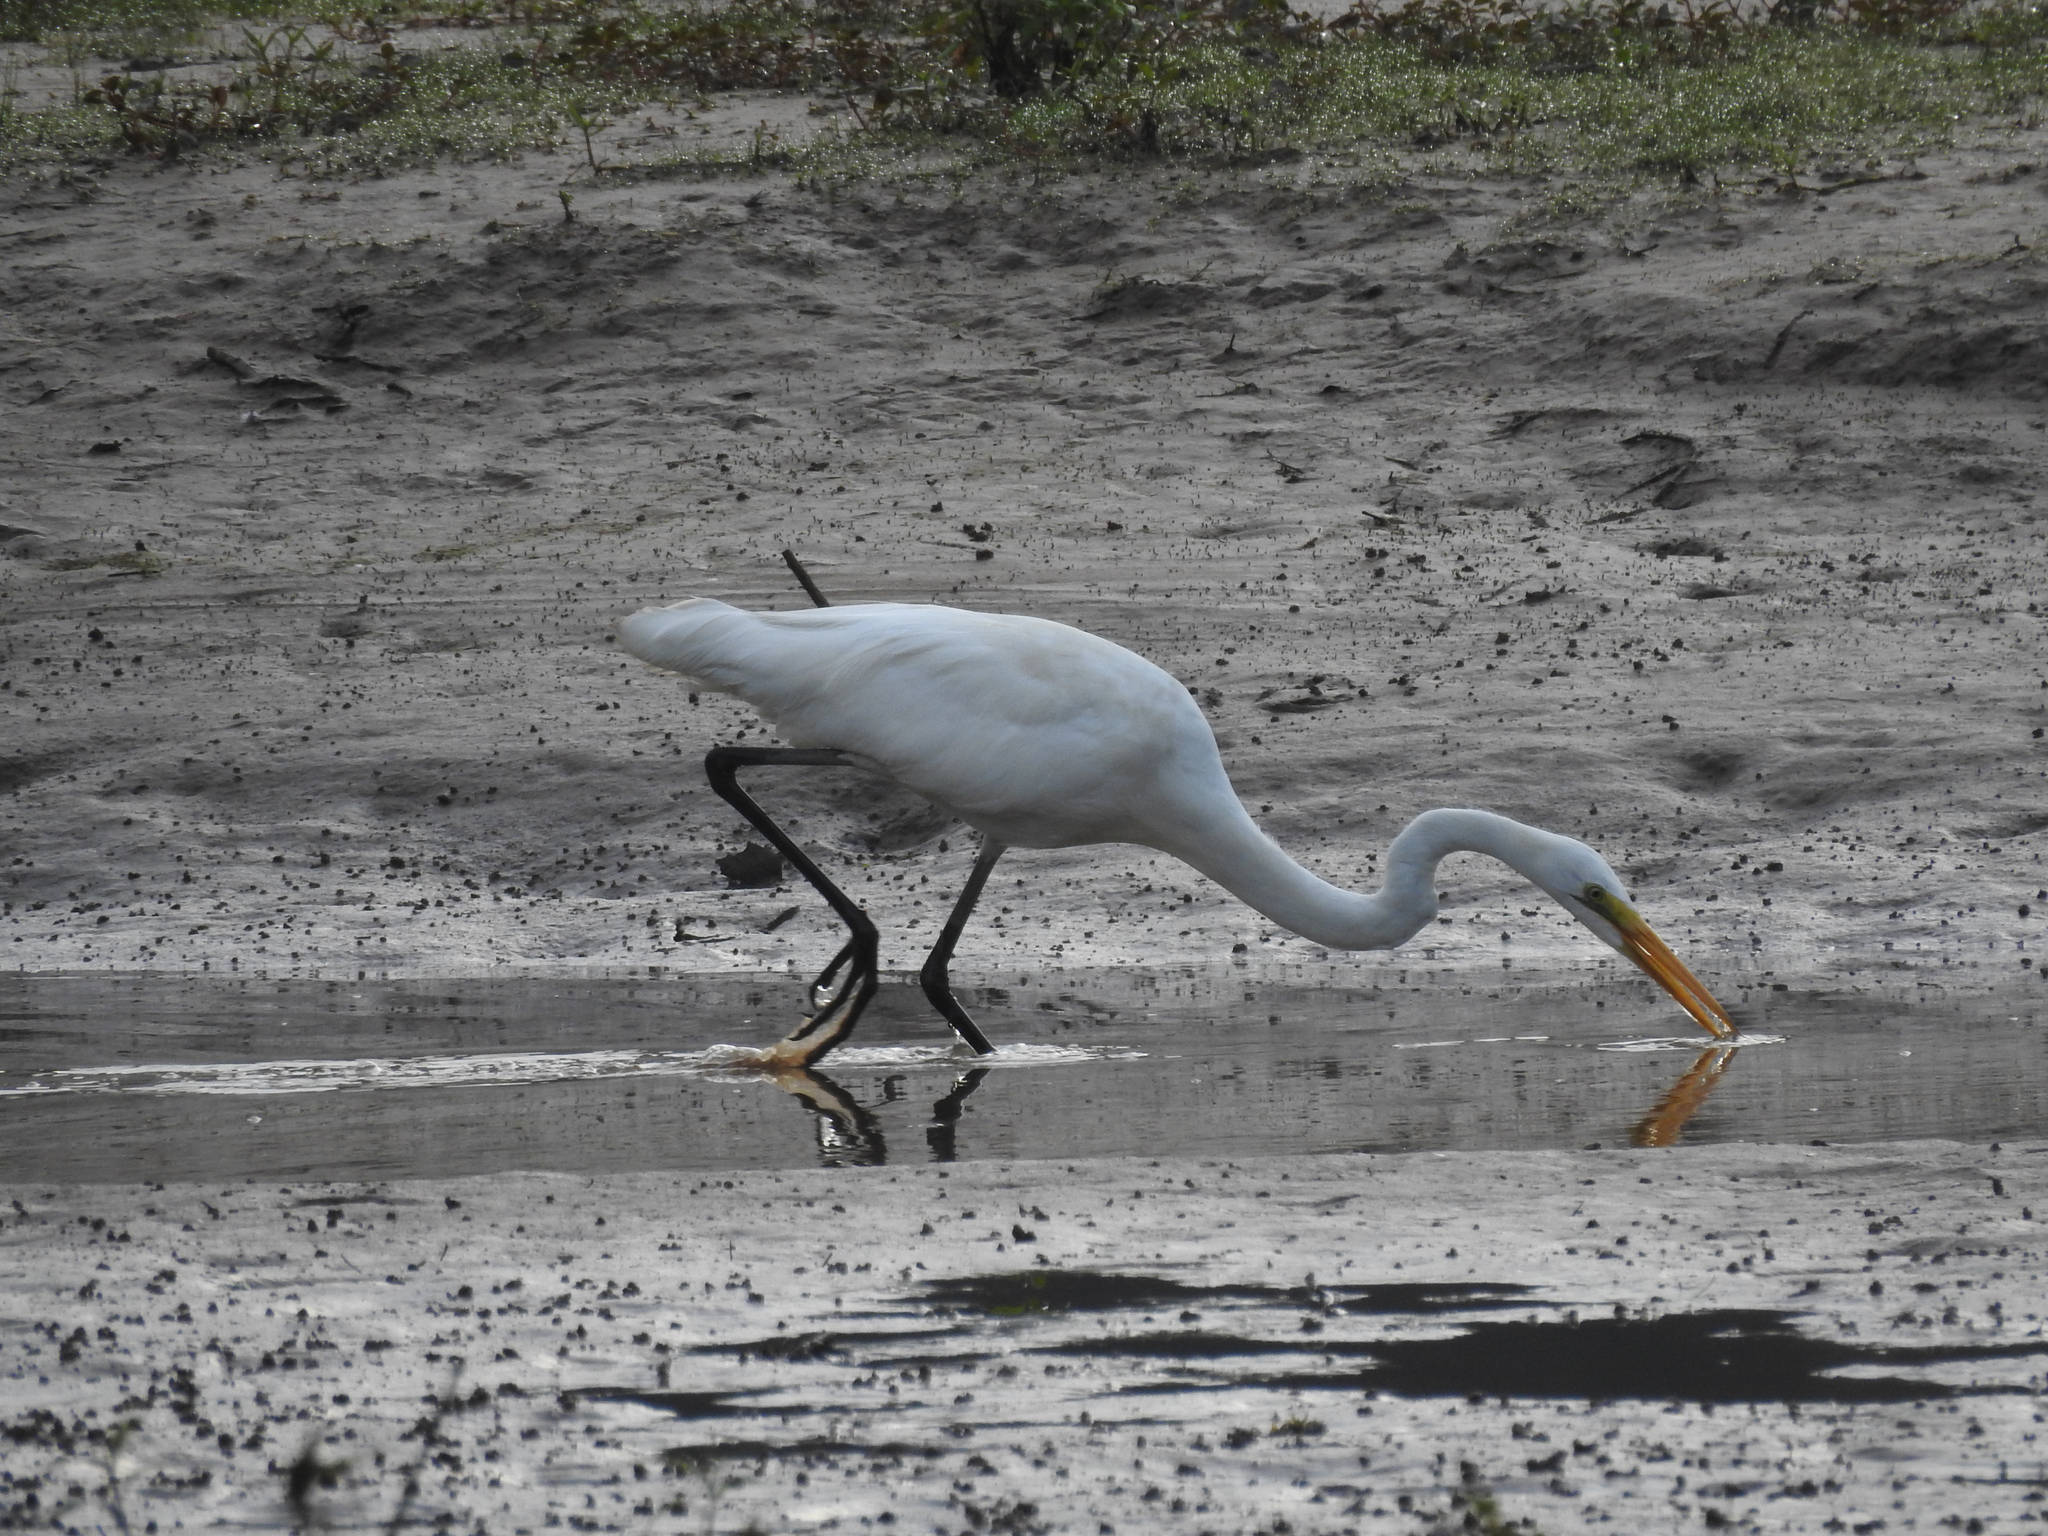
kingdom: Animalia
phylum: Chordata
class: Aves
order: Pelecaniformes
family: Ardeidae
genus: Ardea
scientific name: Ardea alba
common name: Great egret
